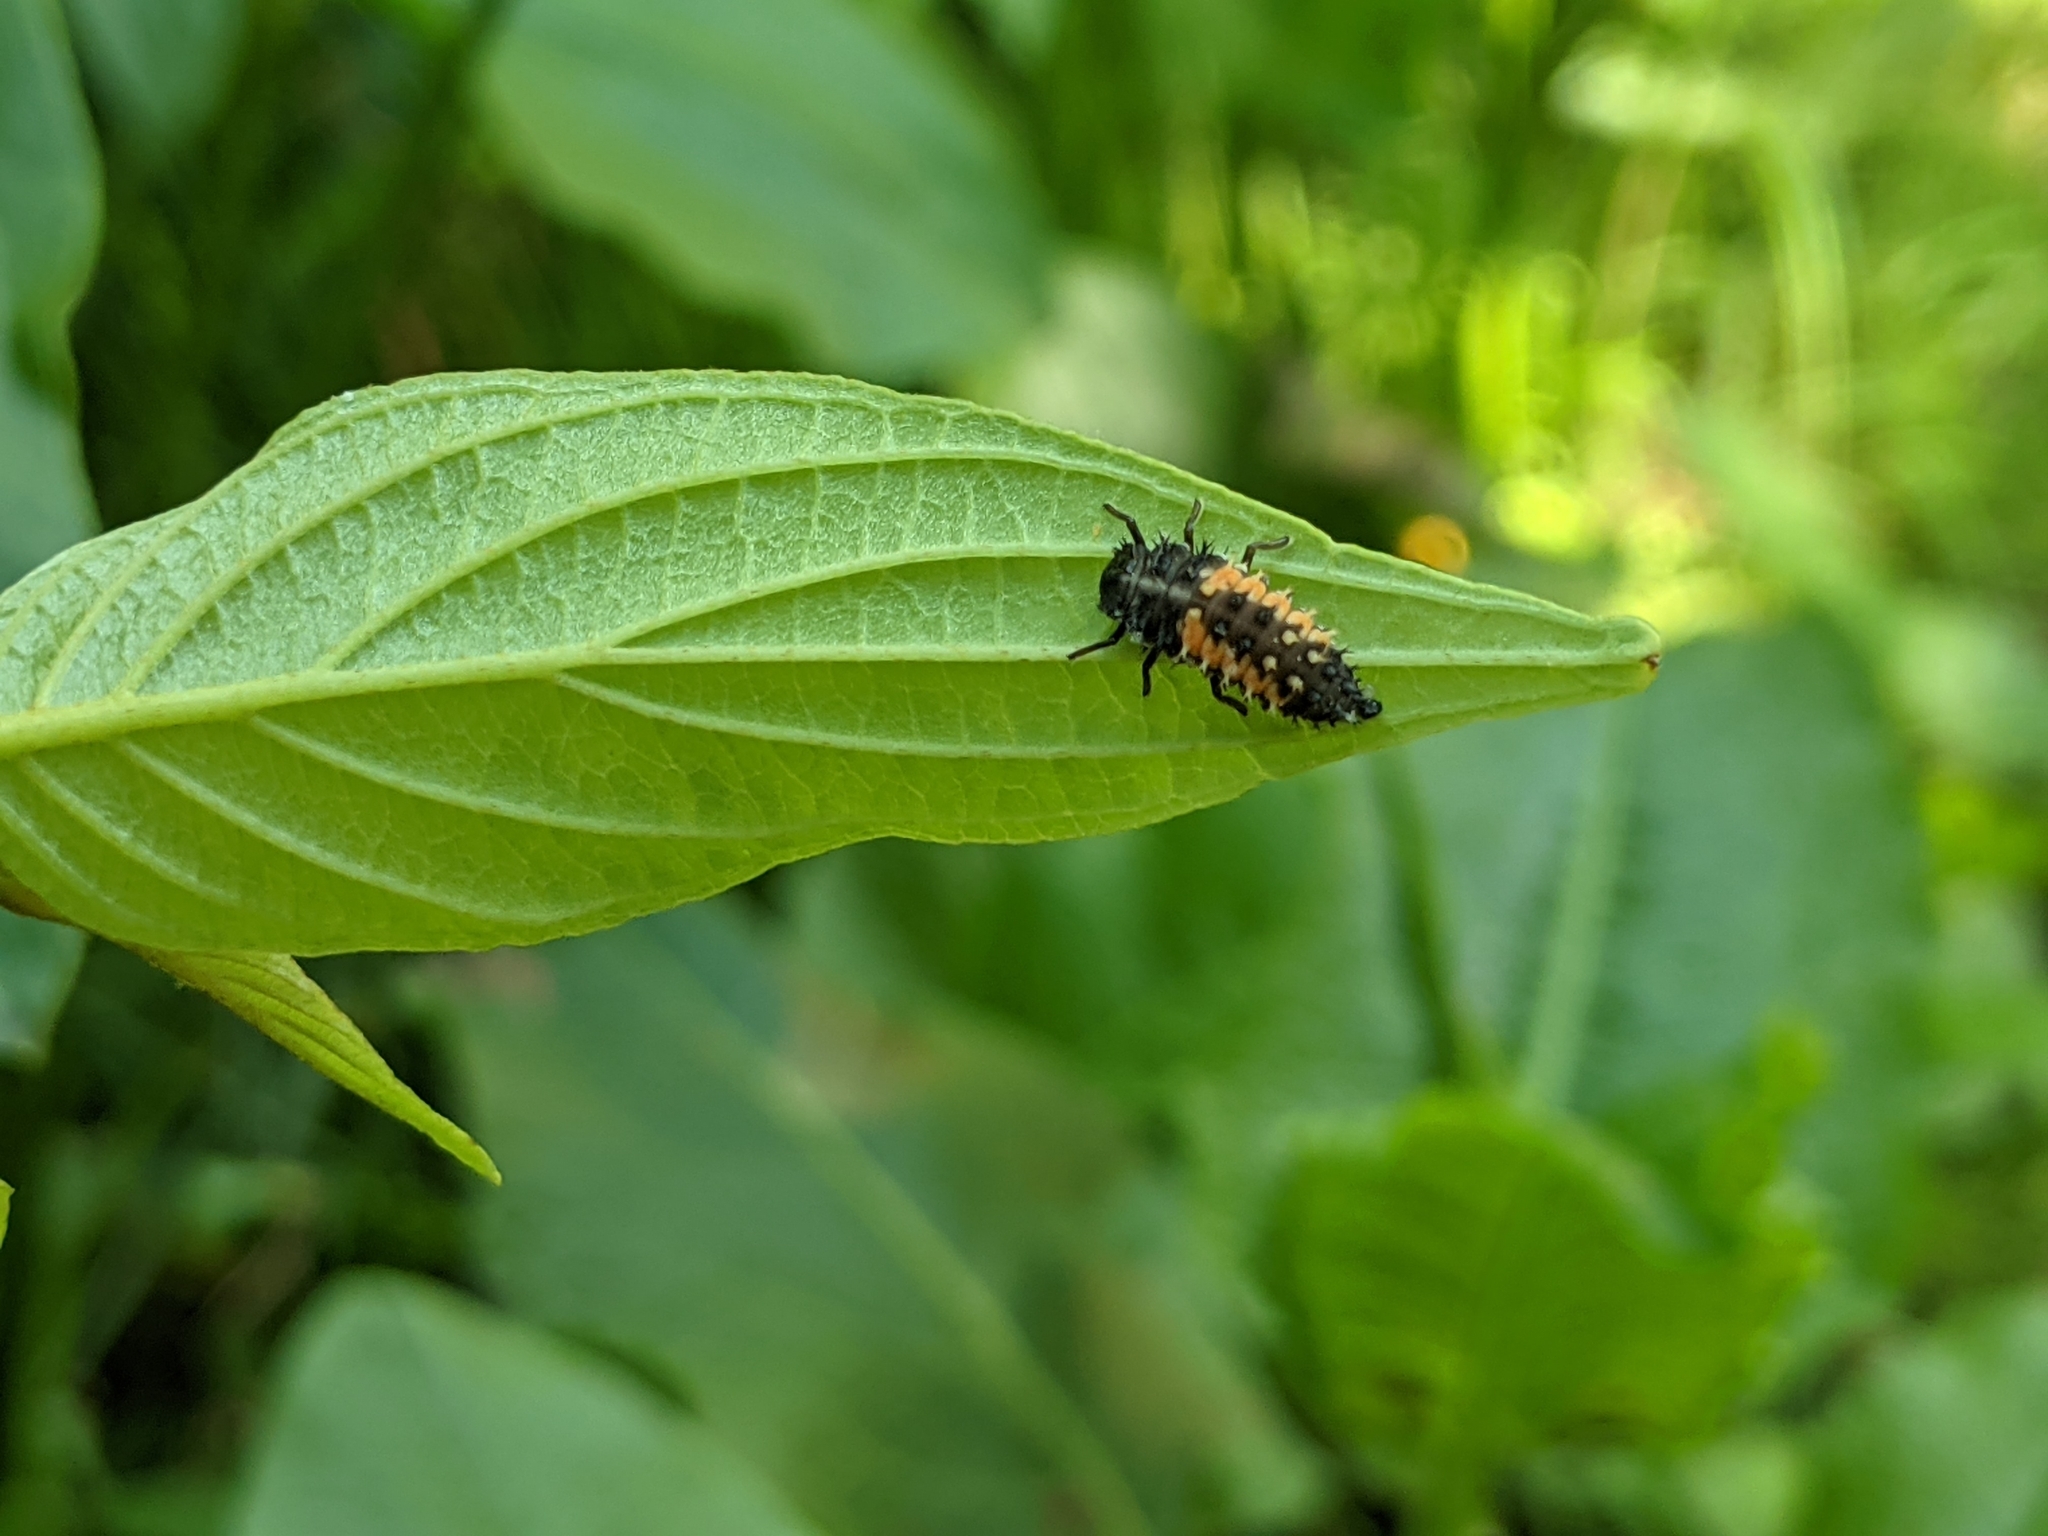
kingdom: Animalia
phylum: Arthropoda
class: Insecta
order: Coleoptera
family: Coccinellidae
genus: Harmonia
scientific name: Harmonia axyridis
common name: Harlequin ladybird
